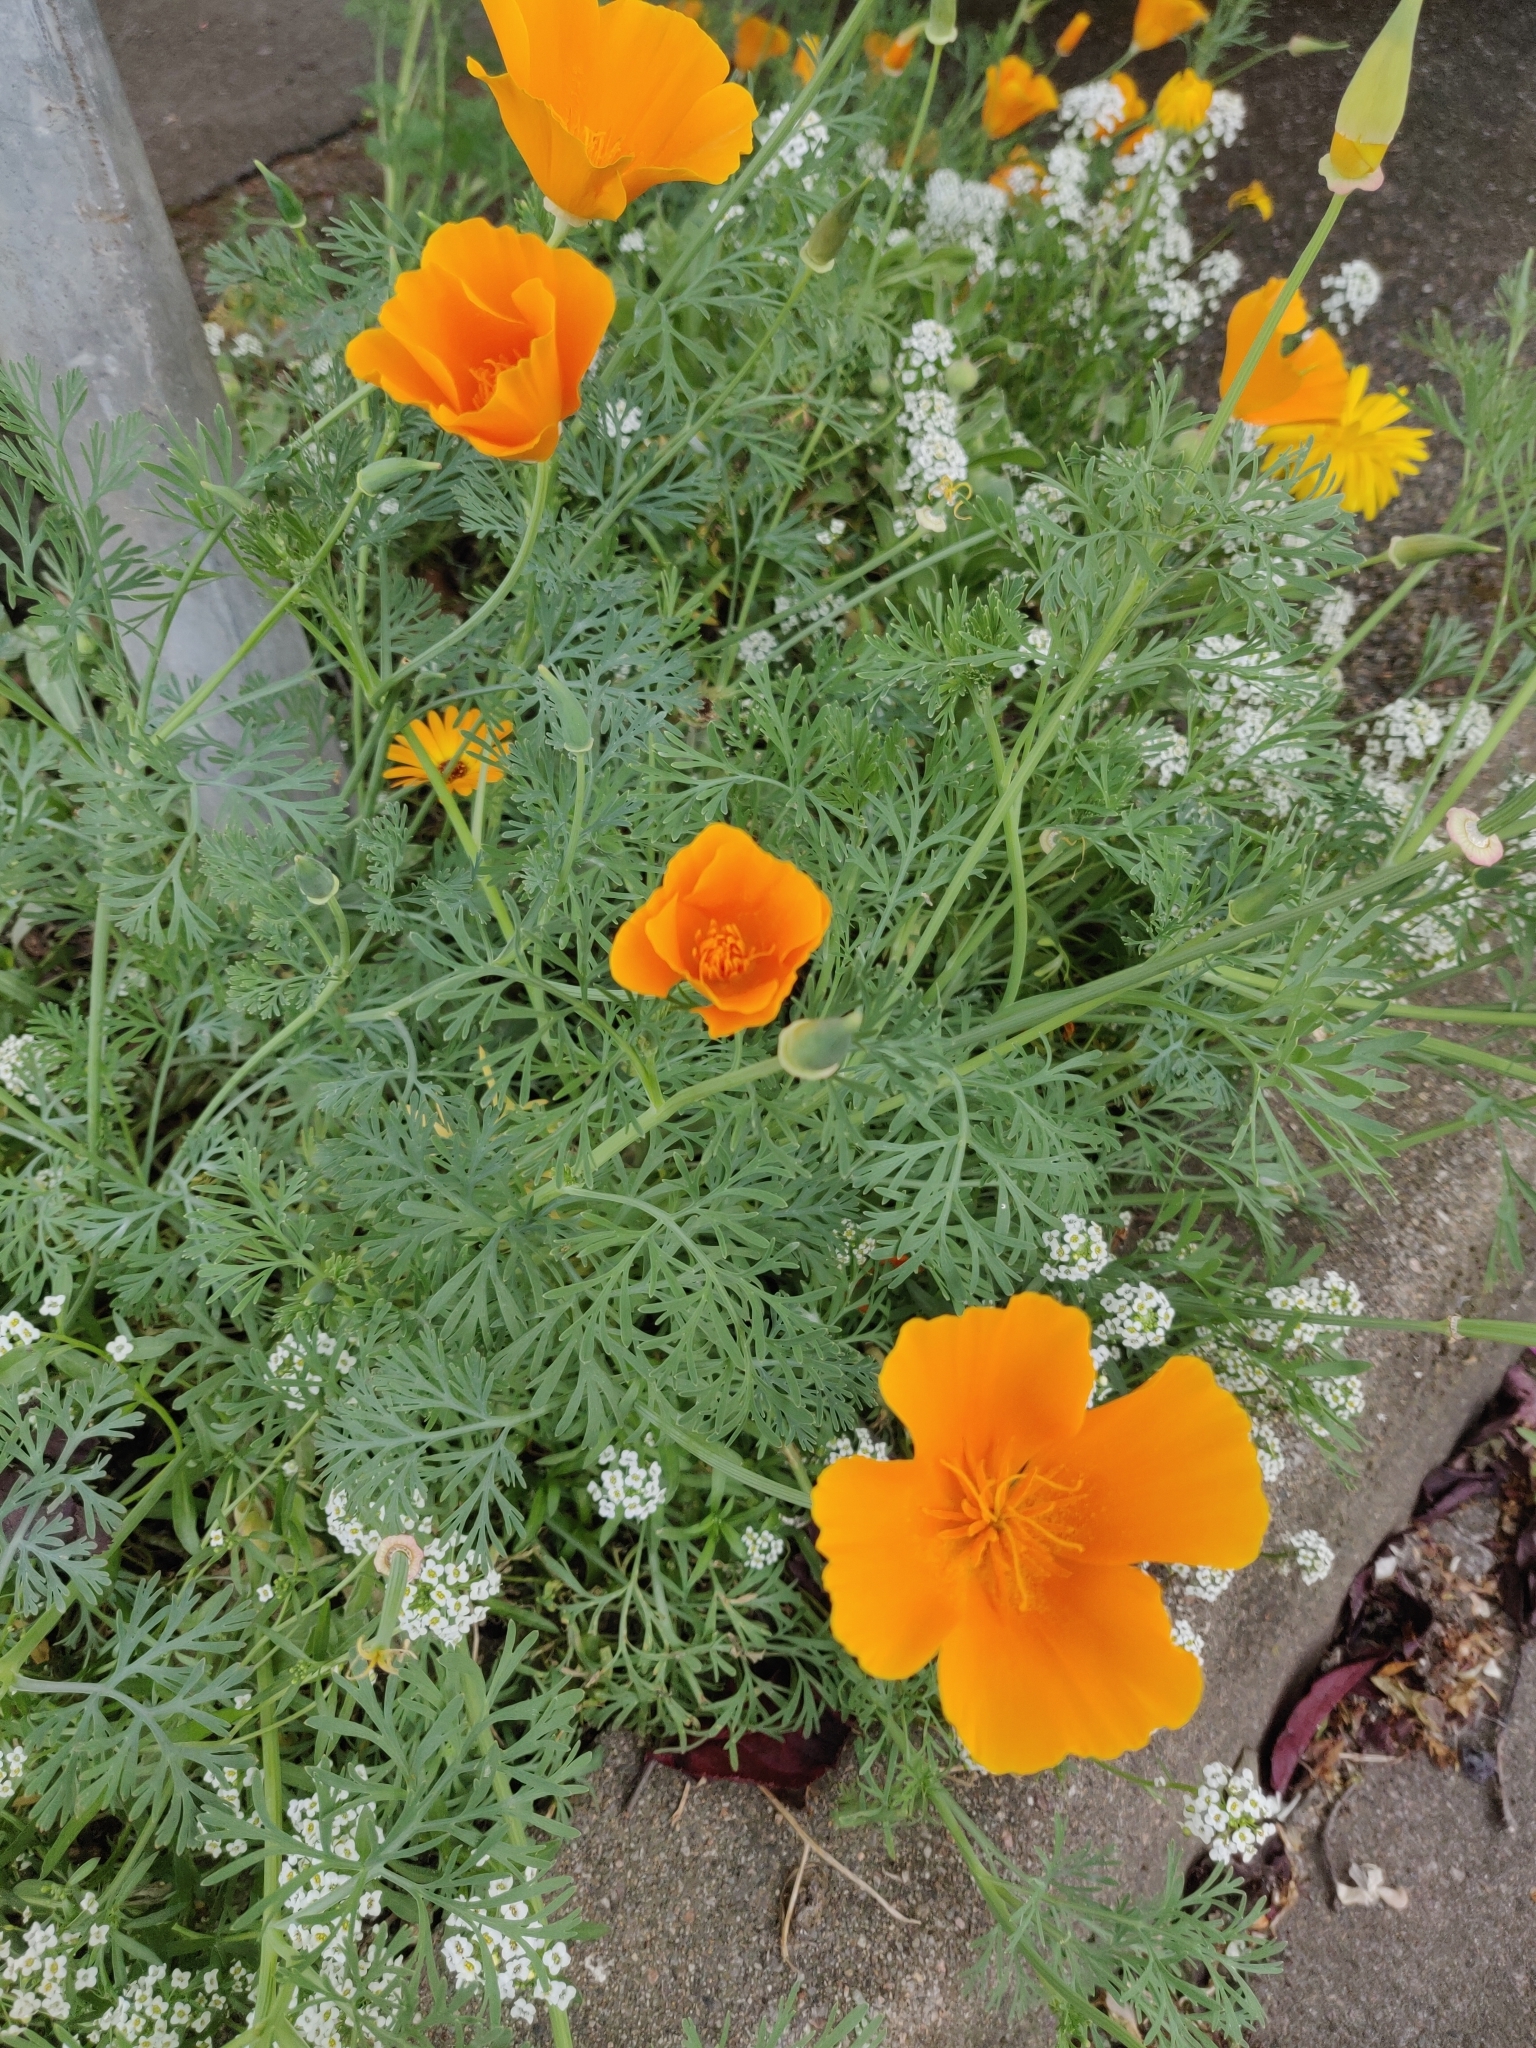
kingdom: Plantae
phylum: Tracheophyta
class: Magnoliopsida
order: Ranunculales
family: Papaveraceae
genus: Eschscholzia
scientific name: Eschscholzia californica
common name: California poppy
